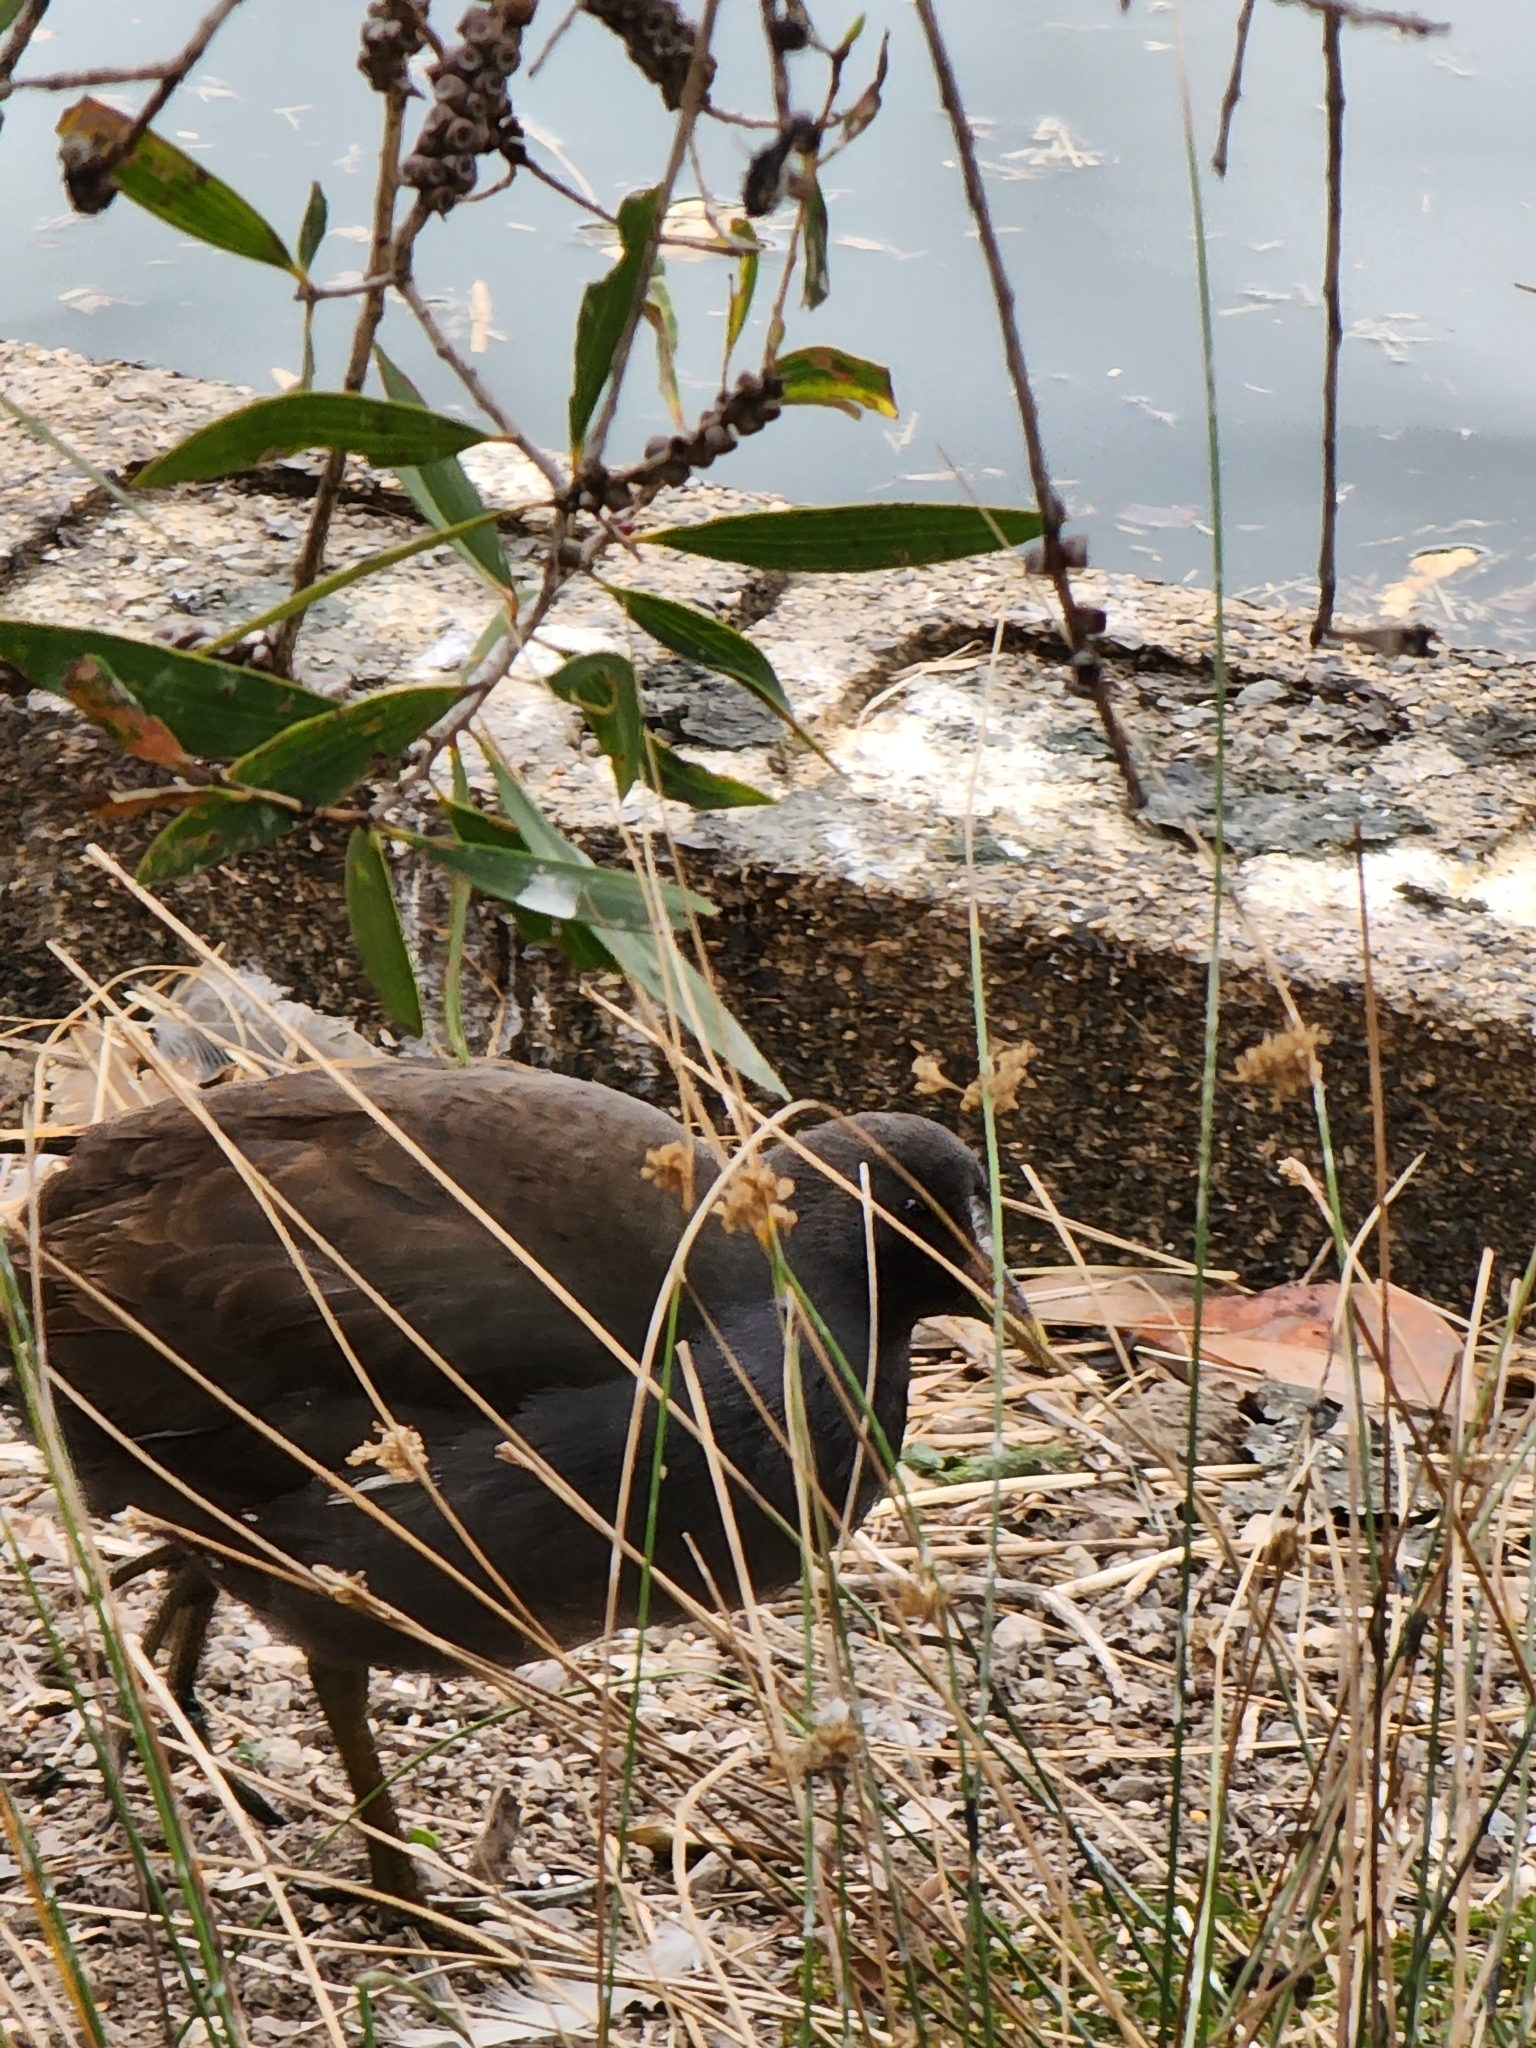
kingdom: Animalia
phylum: Chordata
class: Aves
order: Gruiformes
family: Rallidae
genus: Gallinula
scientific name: Gallinula tenebrosa
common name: Dusky moorhen
